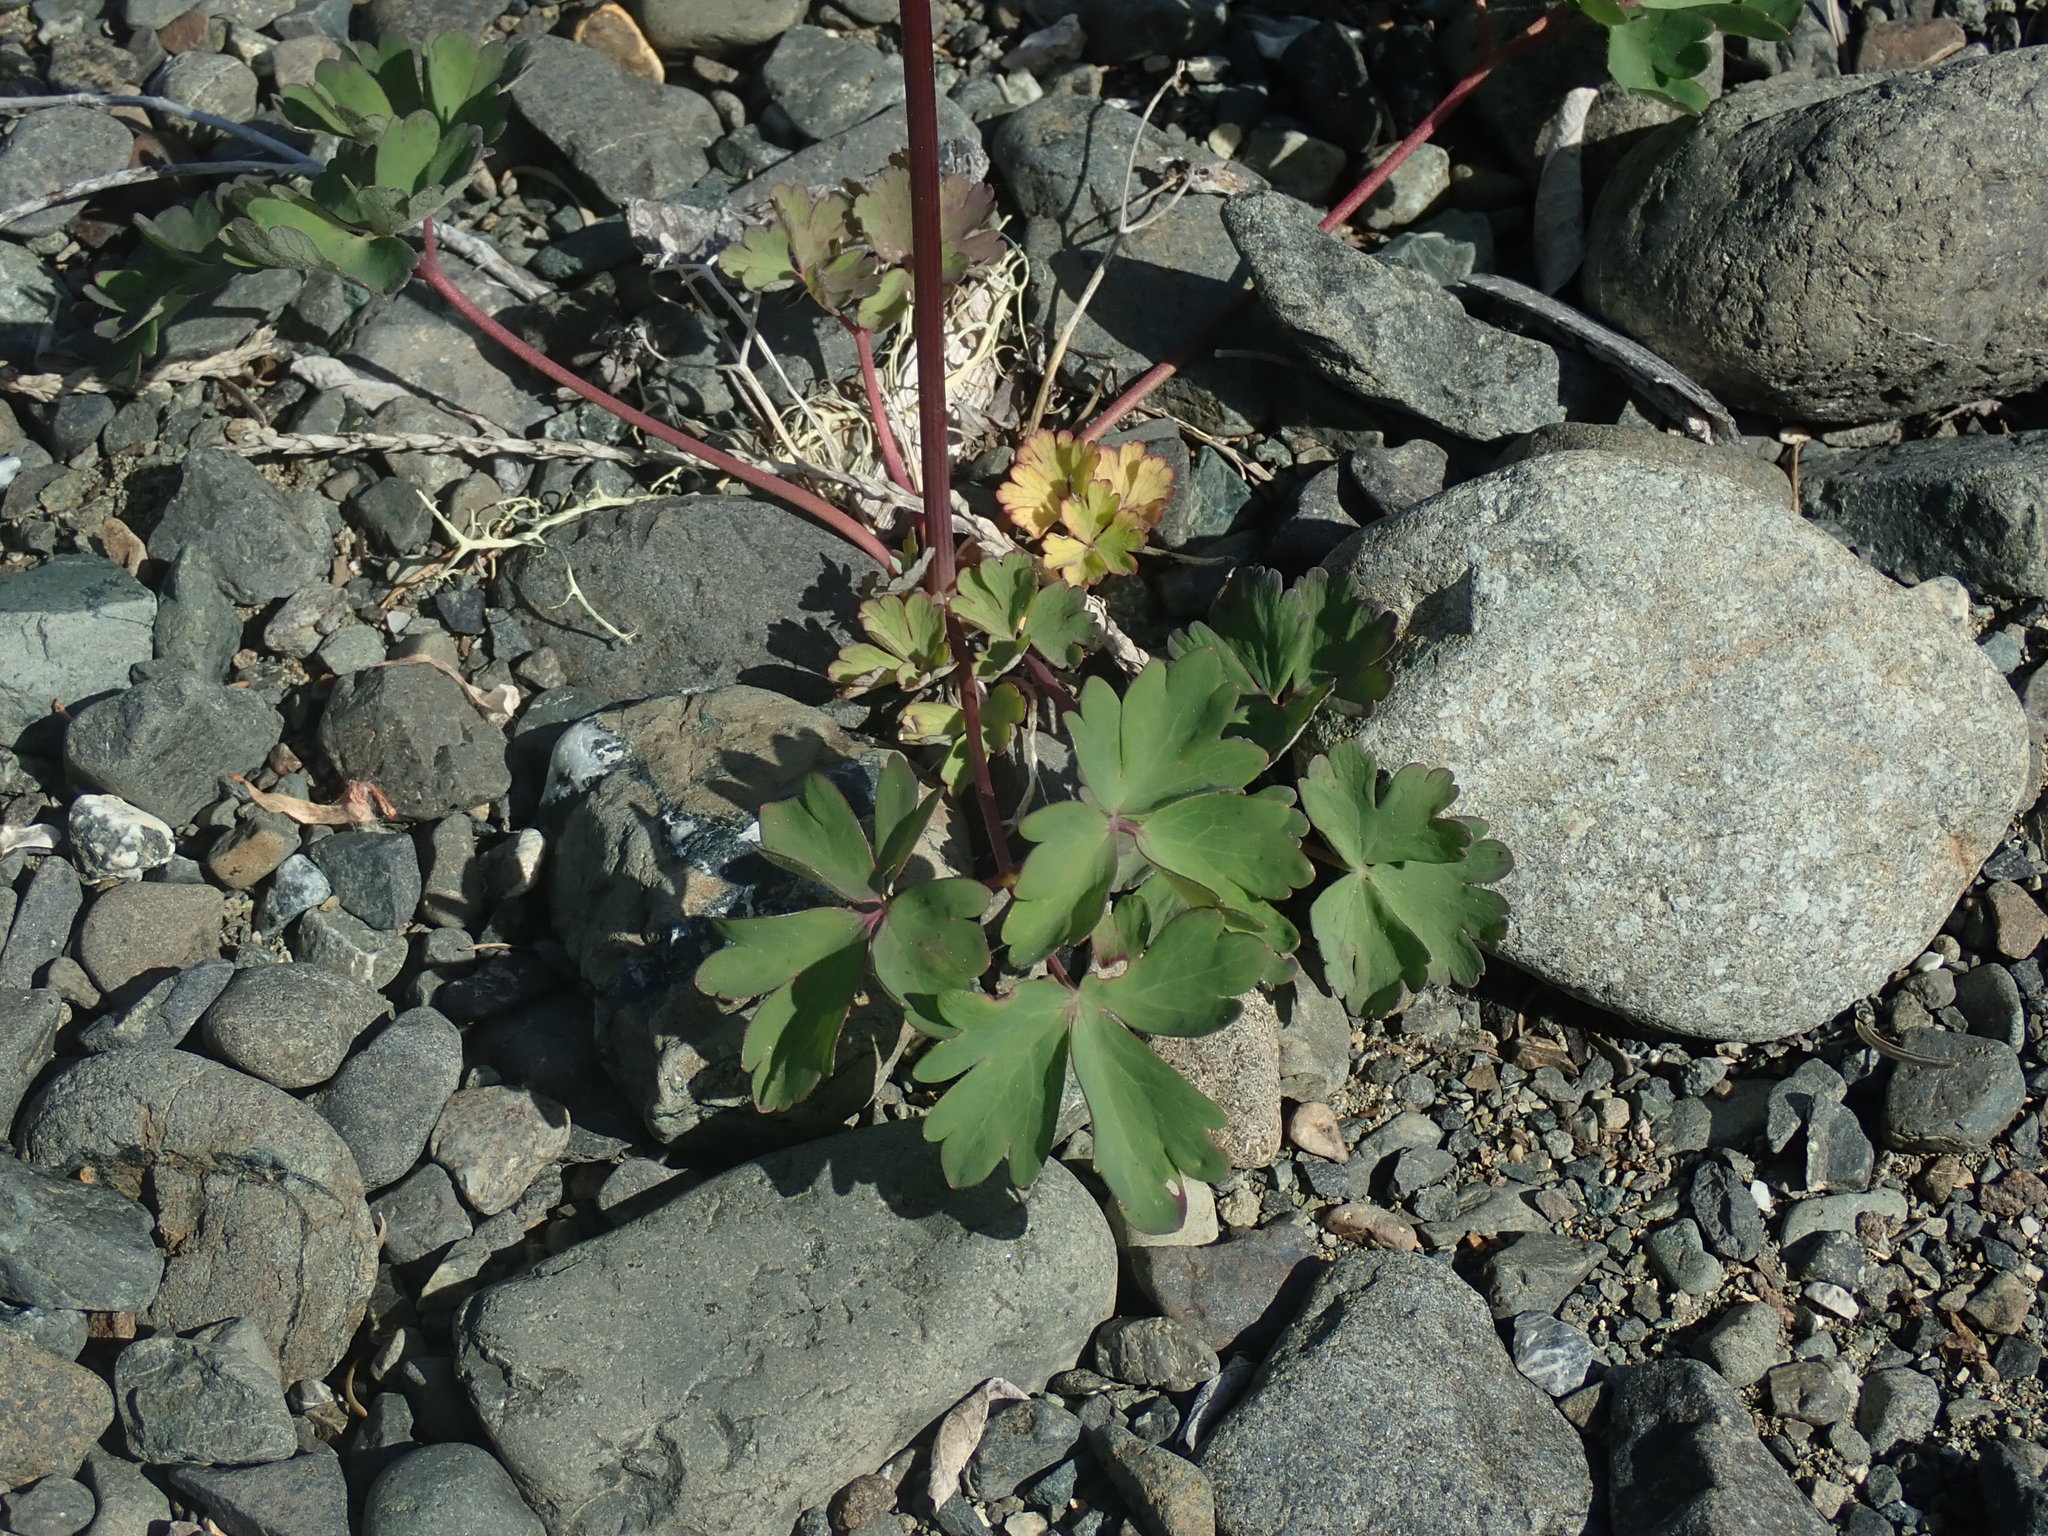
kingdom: Plantae
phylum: Tracheophyta
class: Magnoliopsida
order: Ranunculales
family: Ranunculaceae
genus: Aquilegia
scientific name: Aquilegia formosa
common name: Sitka columbine
